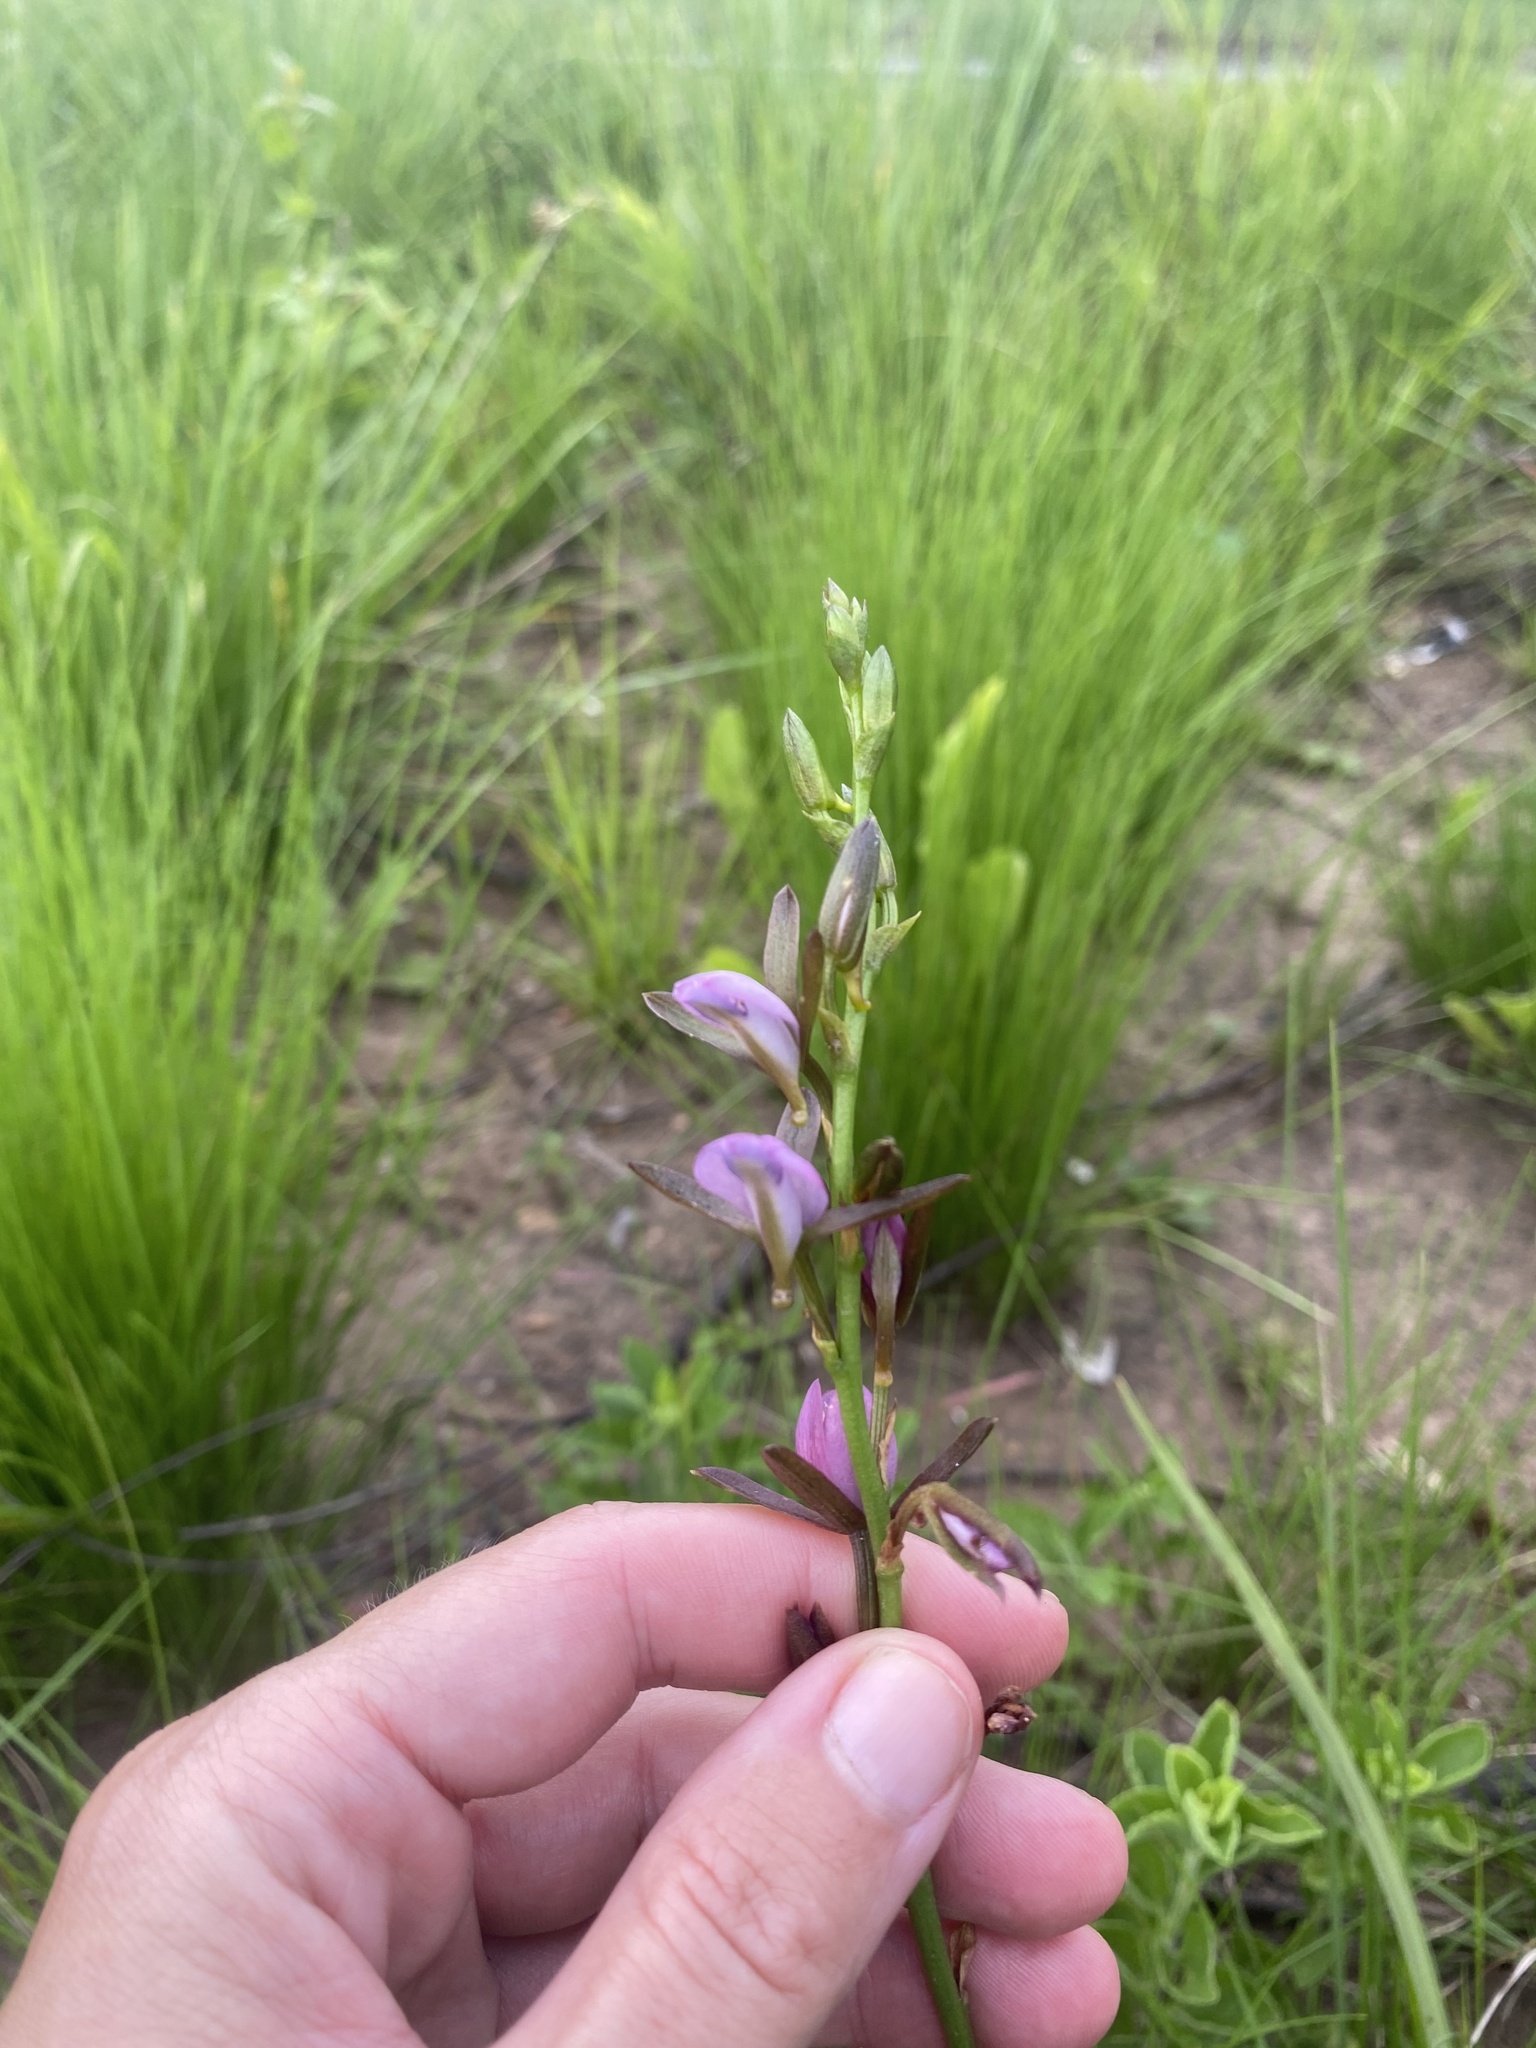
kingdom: Plantae
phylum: Tracheophyta
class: Liliopsida
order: Asparagales
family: Orchidaceae
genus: Eulophia
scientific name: Eulophia hians
